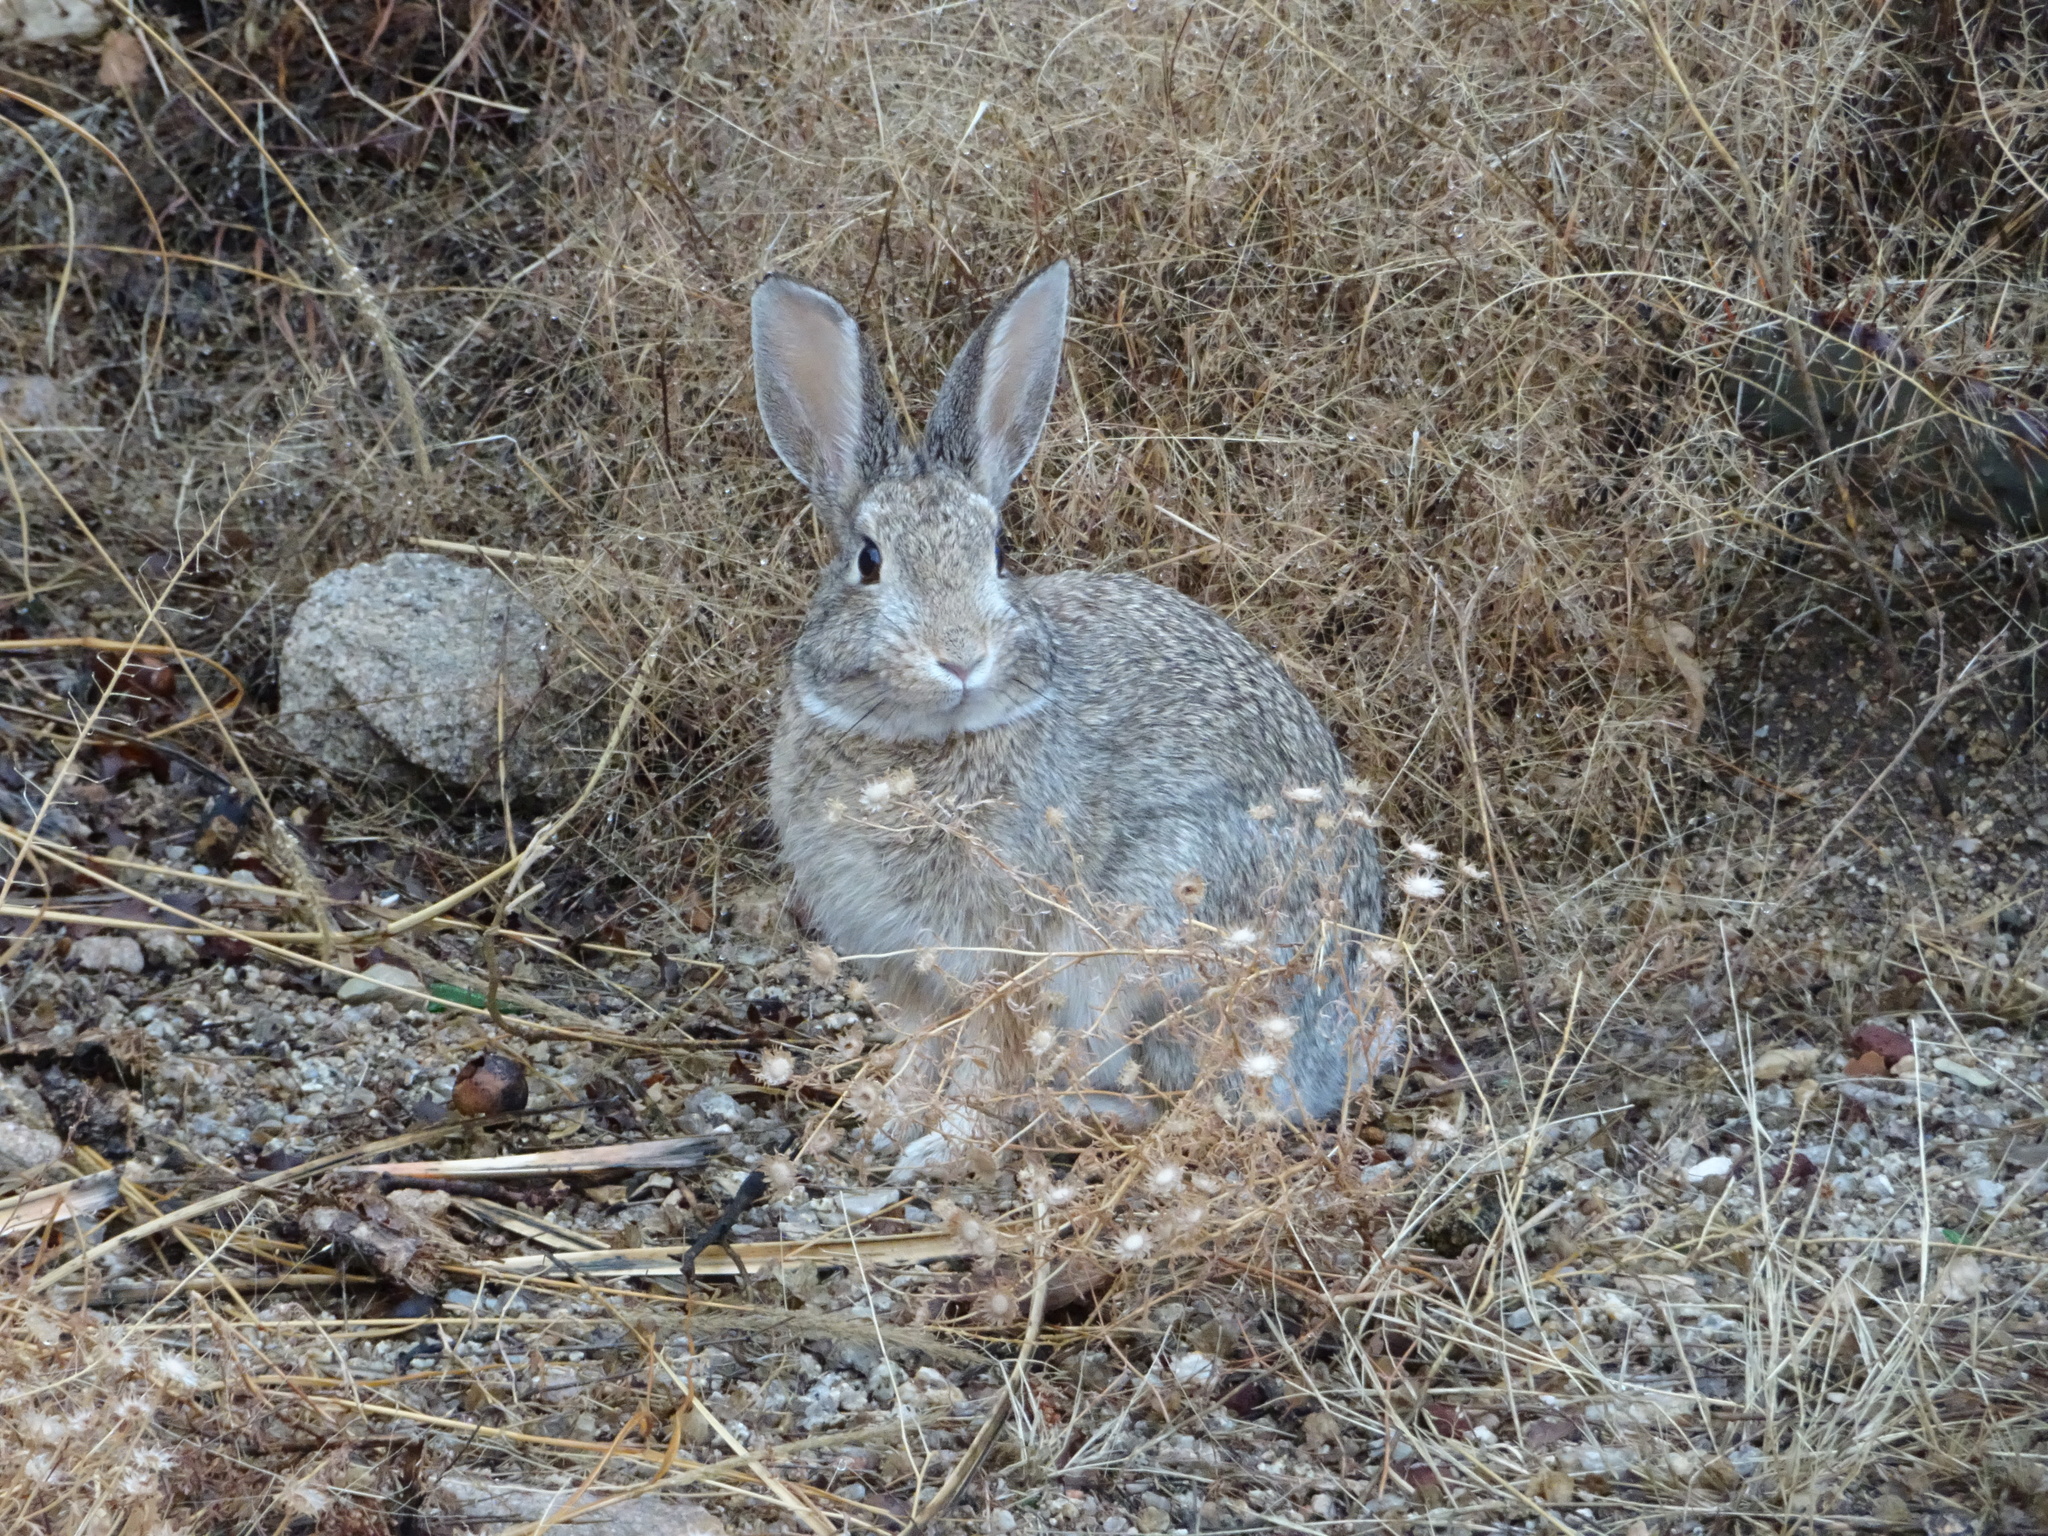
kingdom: Animalia
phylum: Chordata
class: Mammalia
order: Lagomorpha
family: Leporidae
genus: Sylvilagus
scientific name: Sylvilagus audubonii
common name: Desert cottontail
